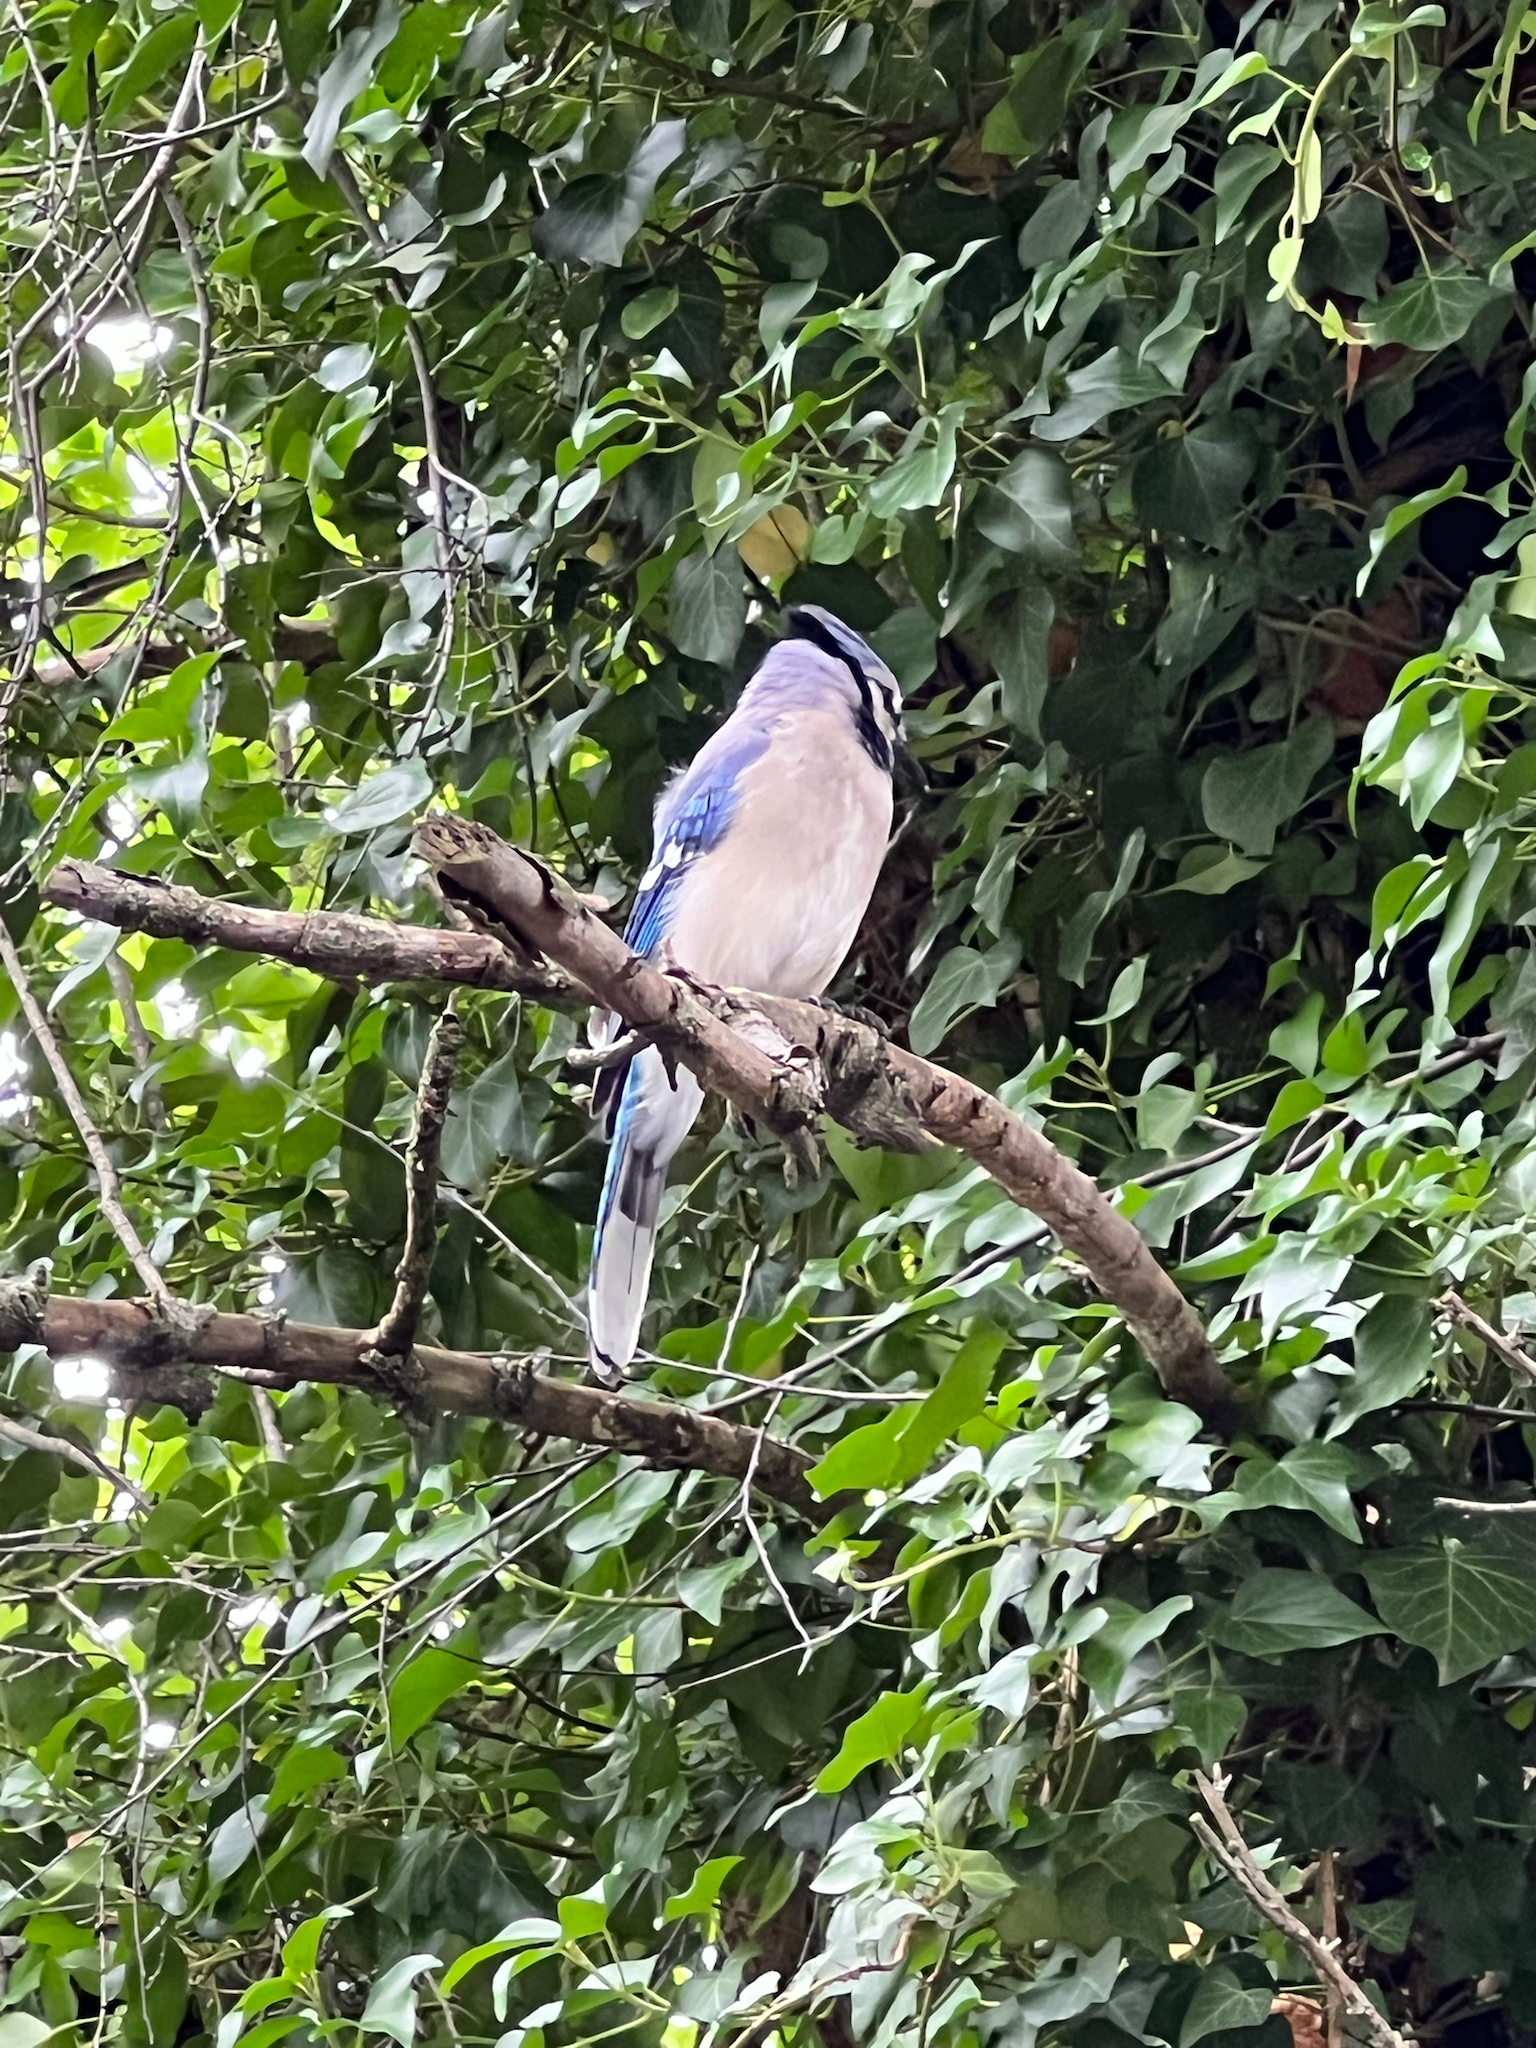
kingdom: Animalia
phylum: Chordata
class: Aves
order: Passeriformes
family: Corvidae
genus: Cyanocitta
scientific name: Cyanocitta cristata
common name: Blue jay
